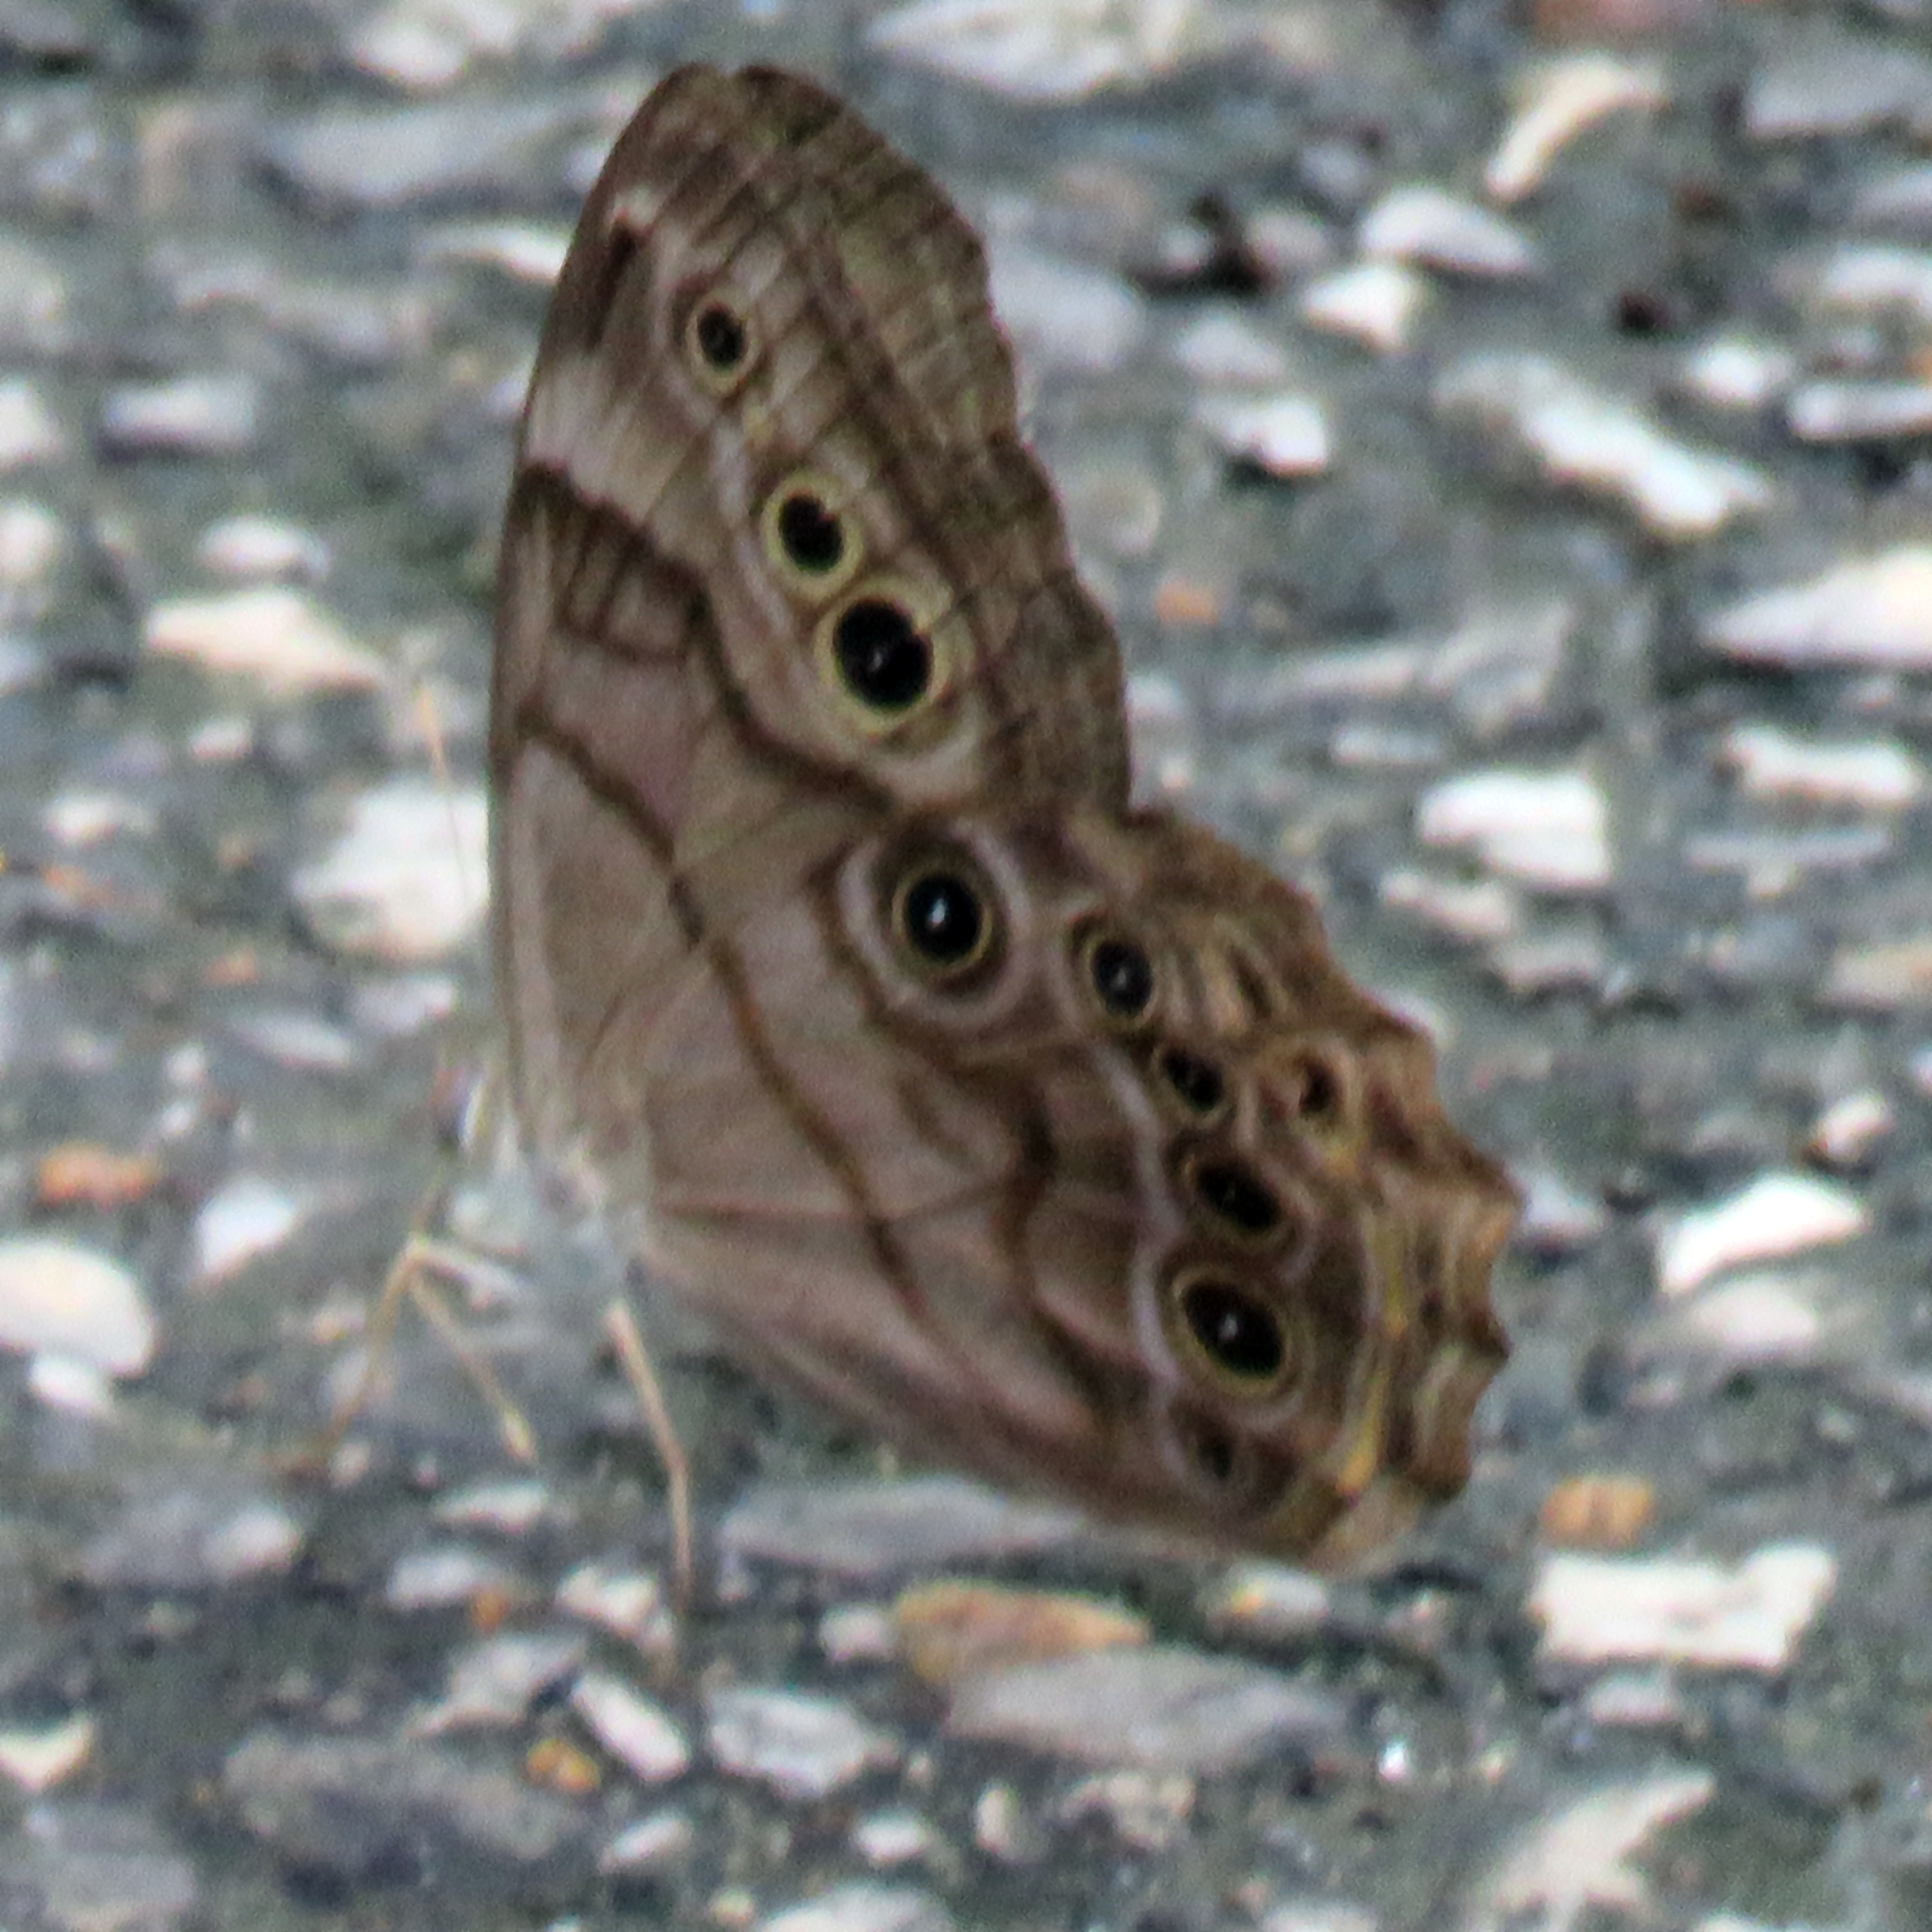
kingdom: Animalia
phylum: Arthropoda
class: Insecta
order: Lepidoptera
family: Nymphalidae
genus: Lethe
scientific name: Lethe anthedon
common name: Northern pearly-eye
